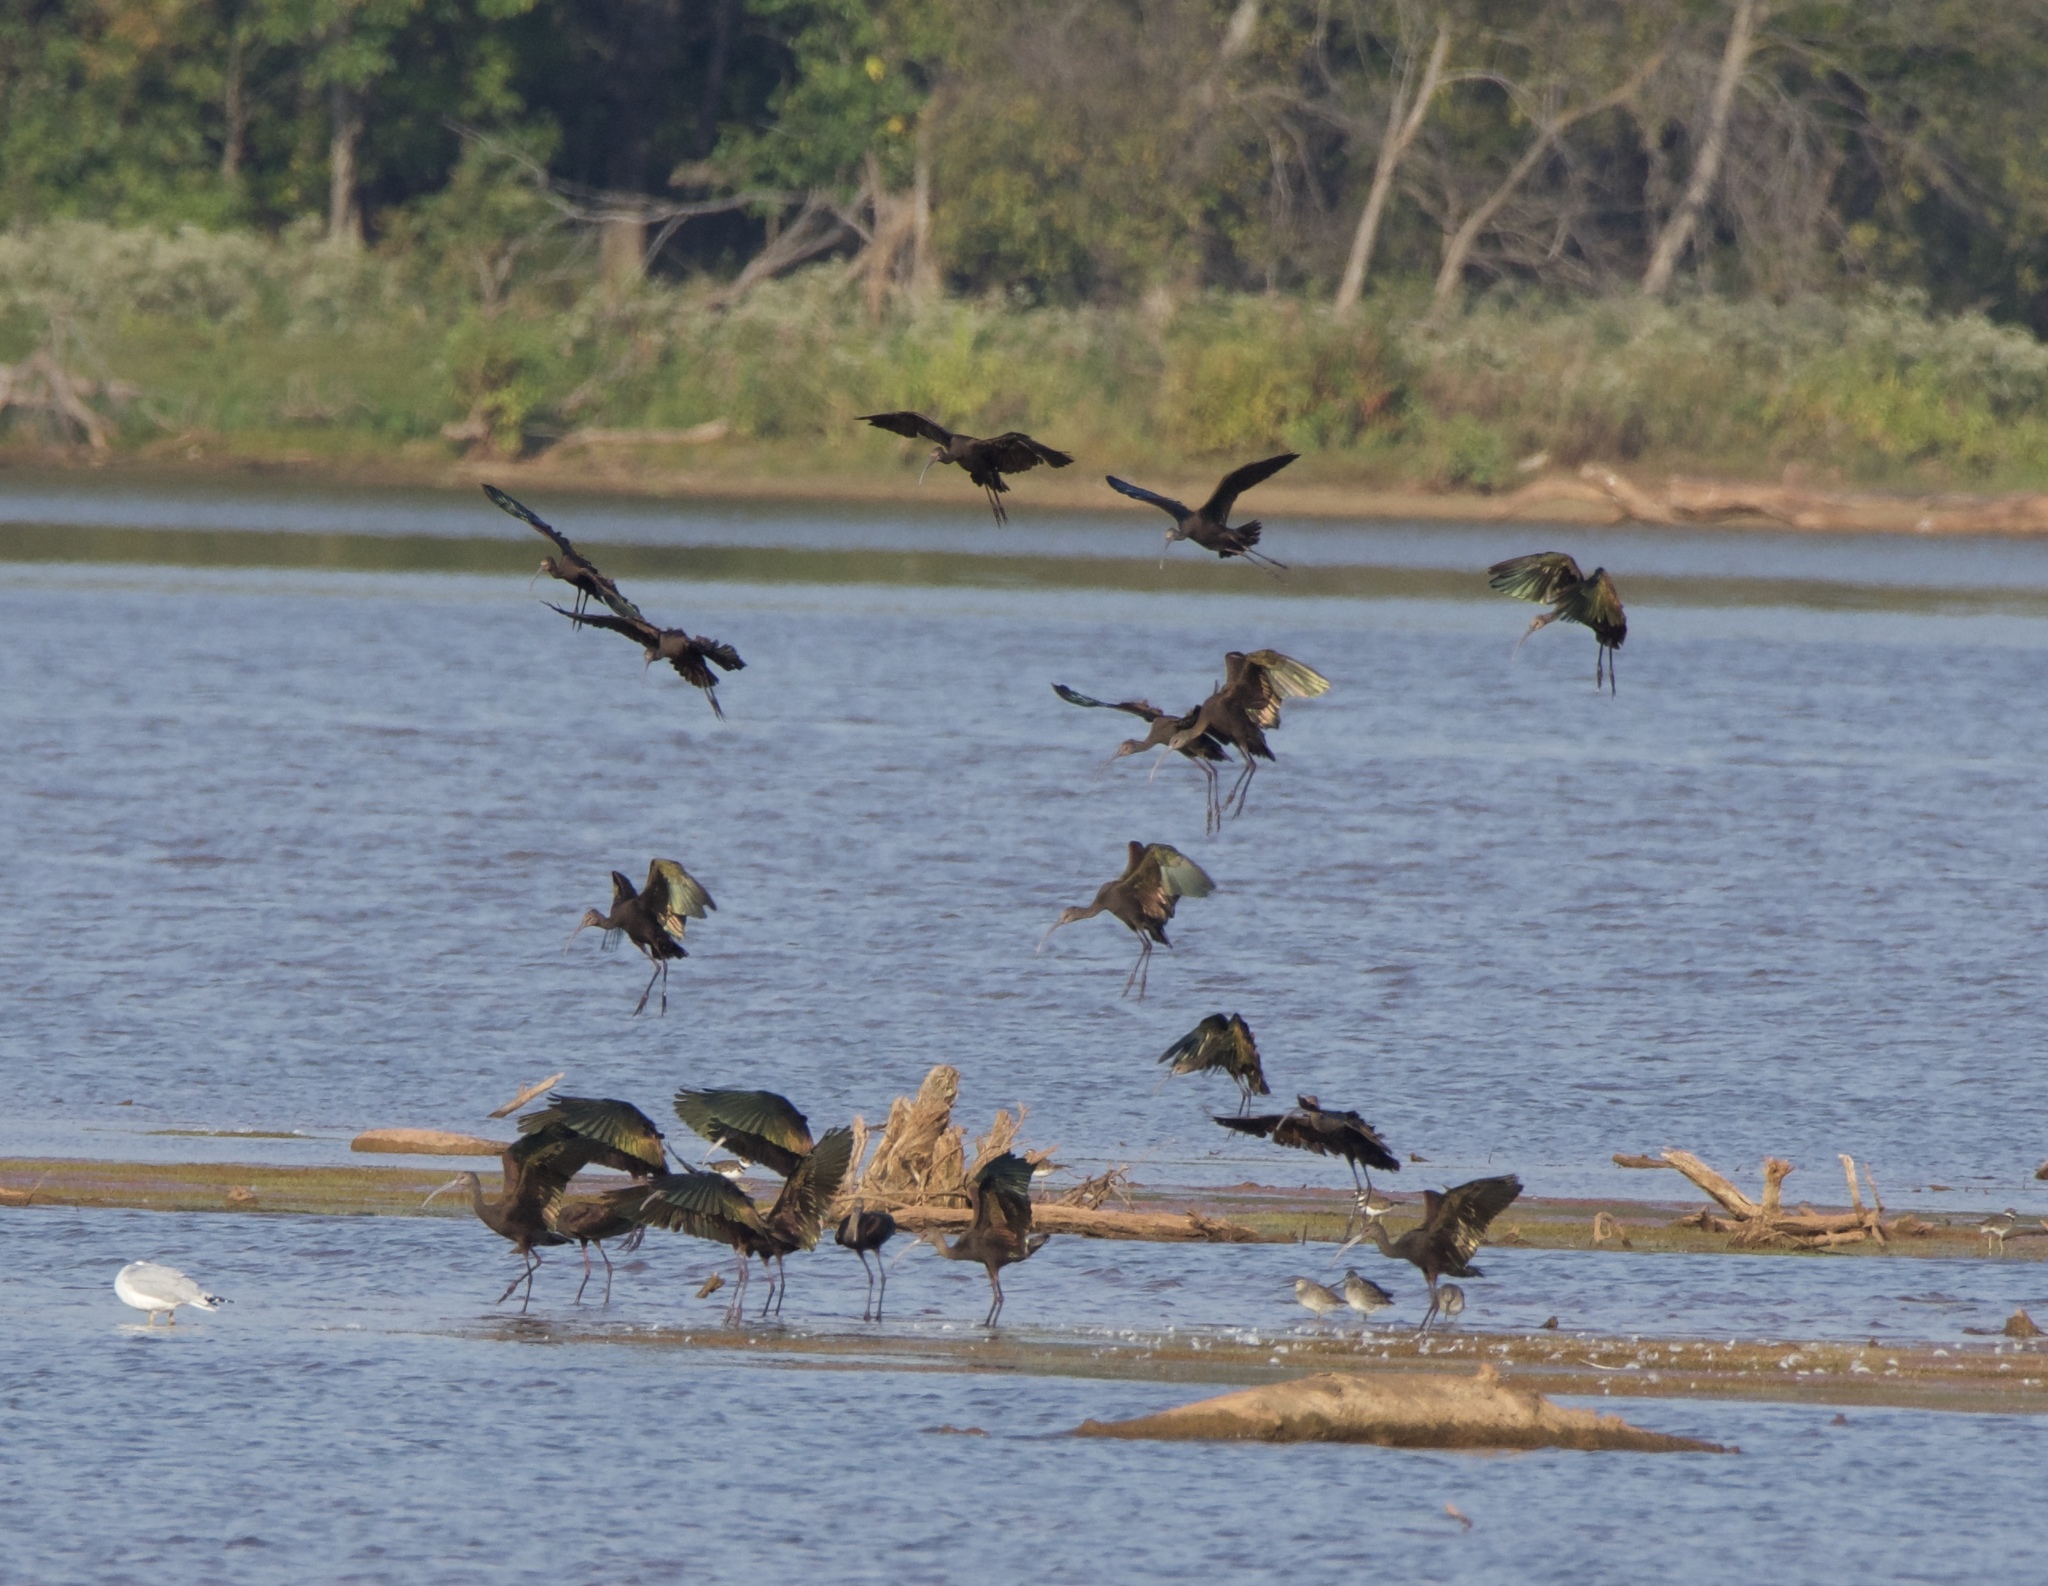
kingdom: Animalia
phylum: Chordata
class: Aves
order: Pelecaniformes
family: Threskiornithidae
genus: Plegadis
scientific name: Plegadis chihi
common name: White-faced ibis
